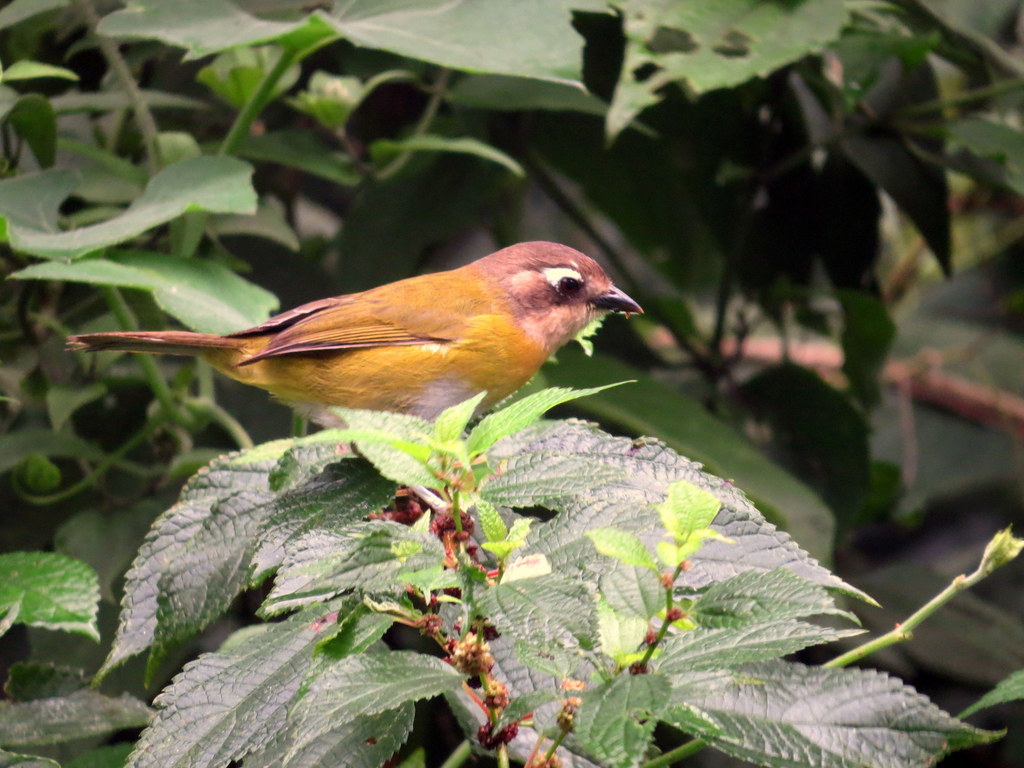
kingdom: Animalia
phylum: Chordata
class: Aves
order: Passeriformes
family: Passerellidae
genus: Chlorospingus
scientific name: Chlorospingus flavopectus
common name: Common chlorospingus
